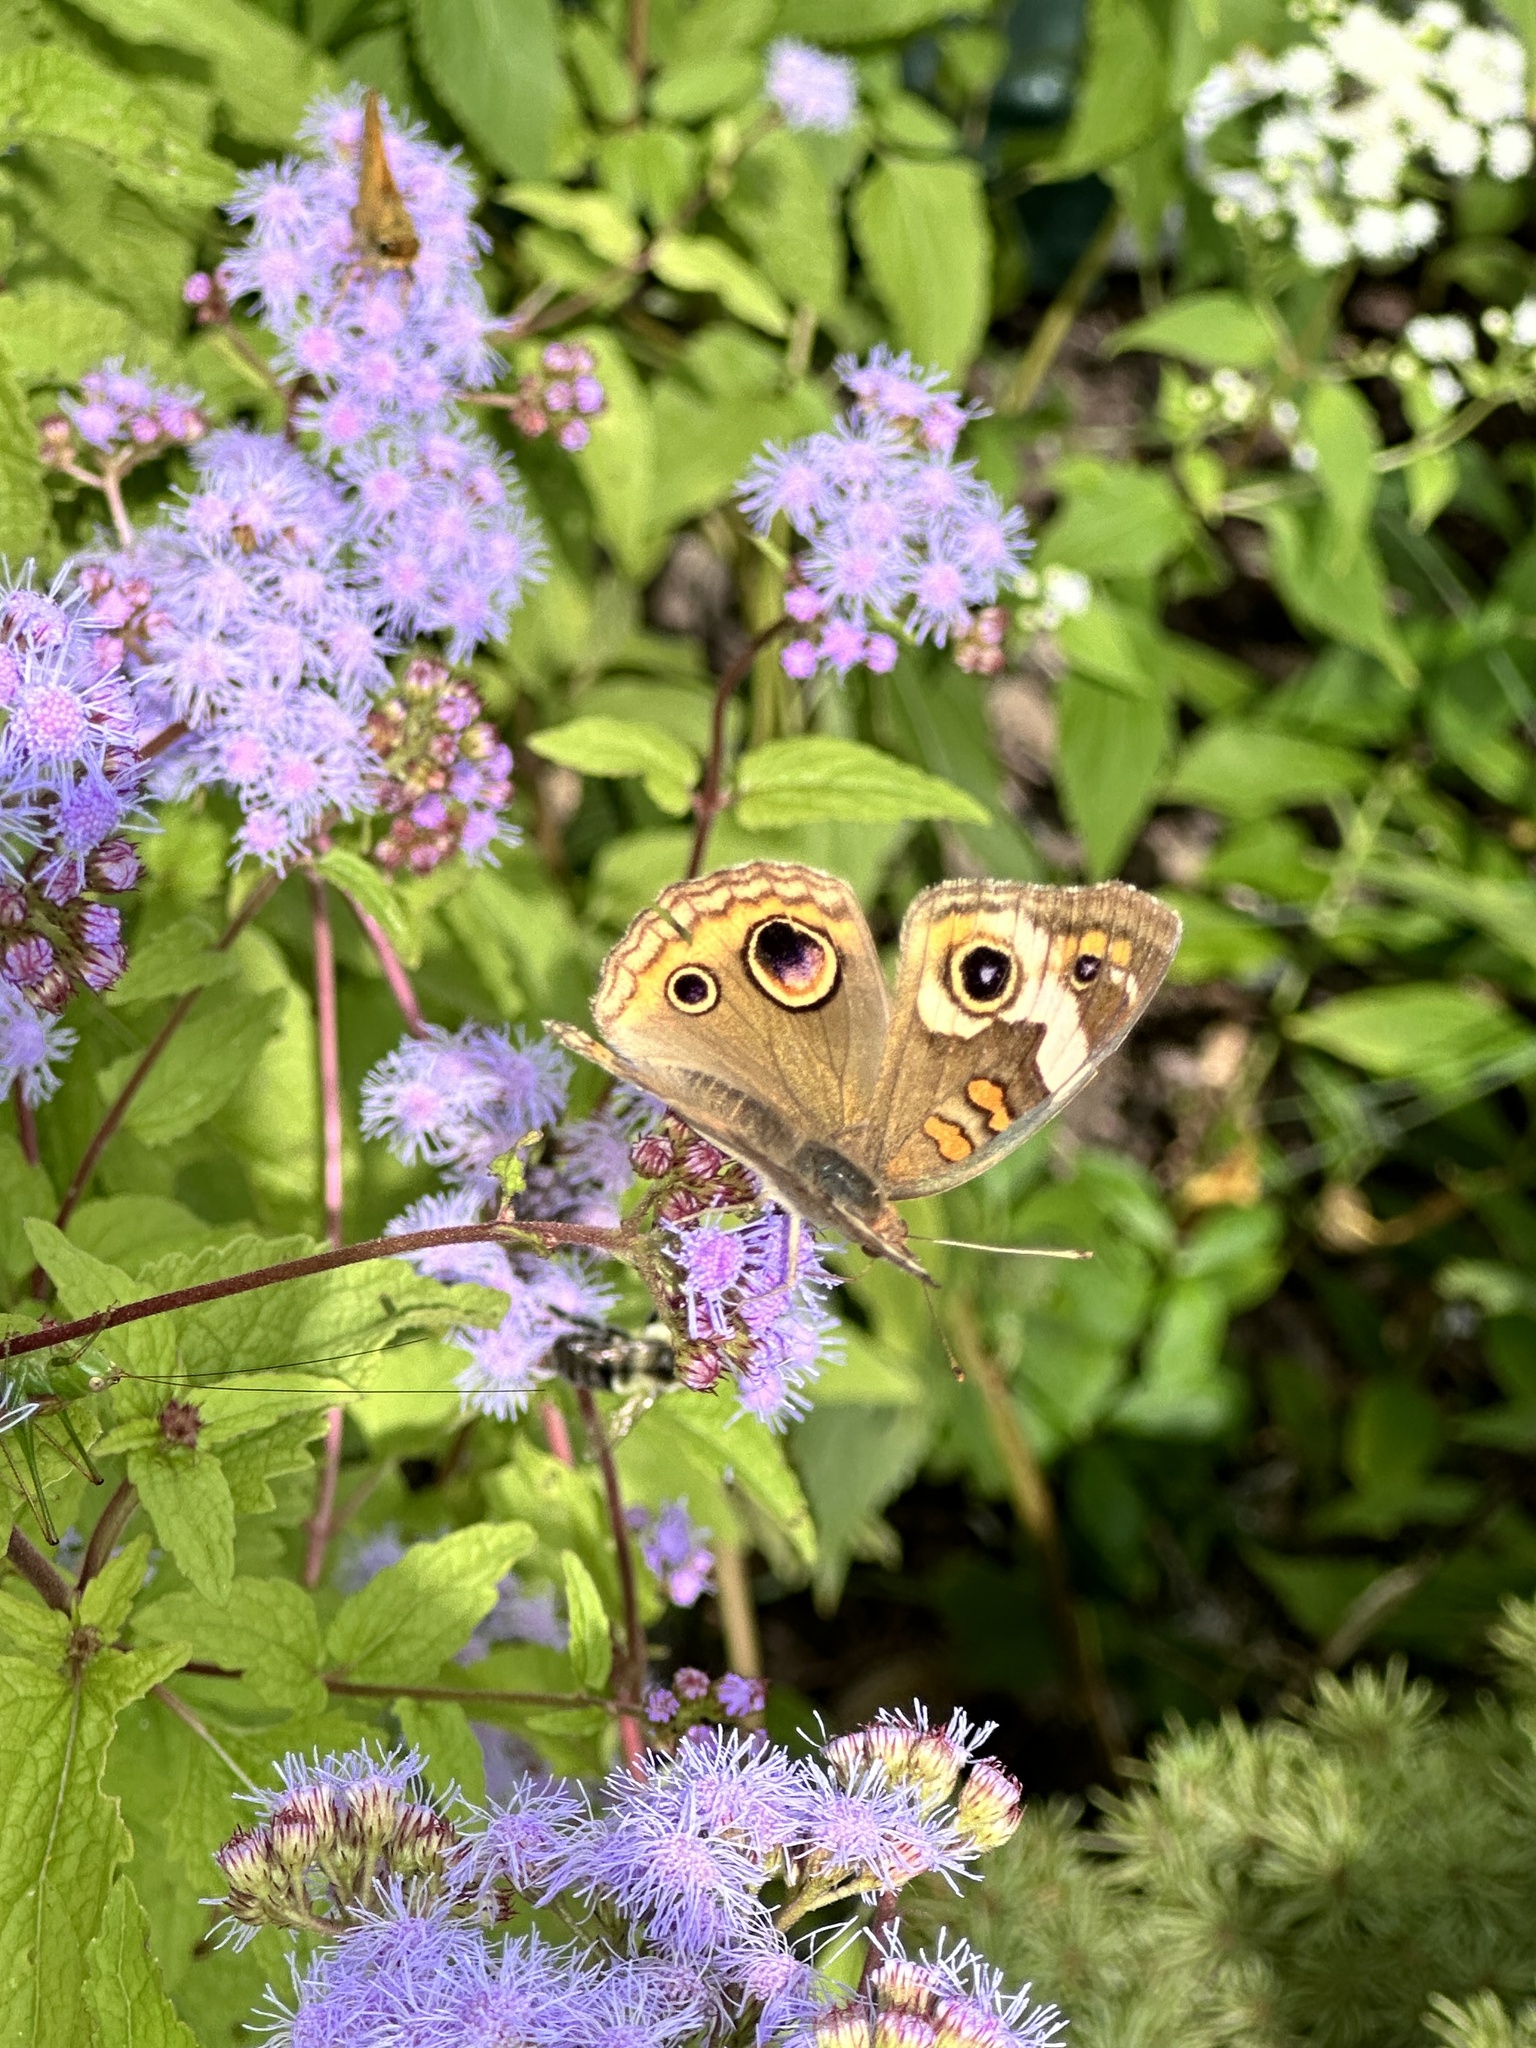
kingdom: Animalia
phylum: Arthropoda
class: Insecta
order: Lepidoptera
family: Nymphalidae
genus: Junonia
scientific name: Junonia coenia
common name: Common buckeye
